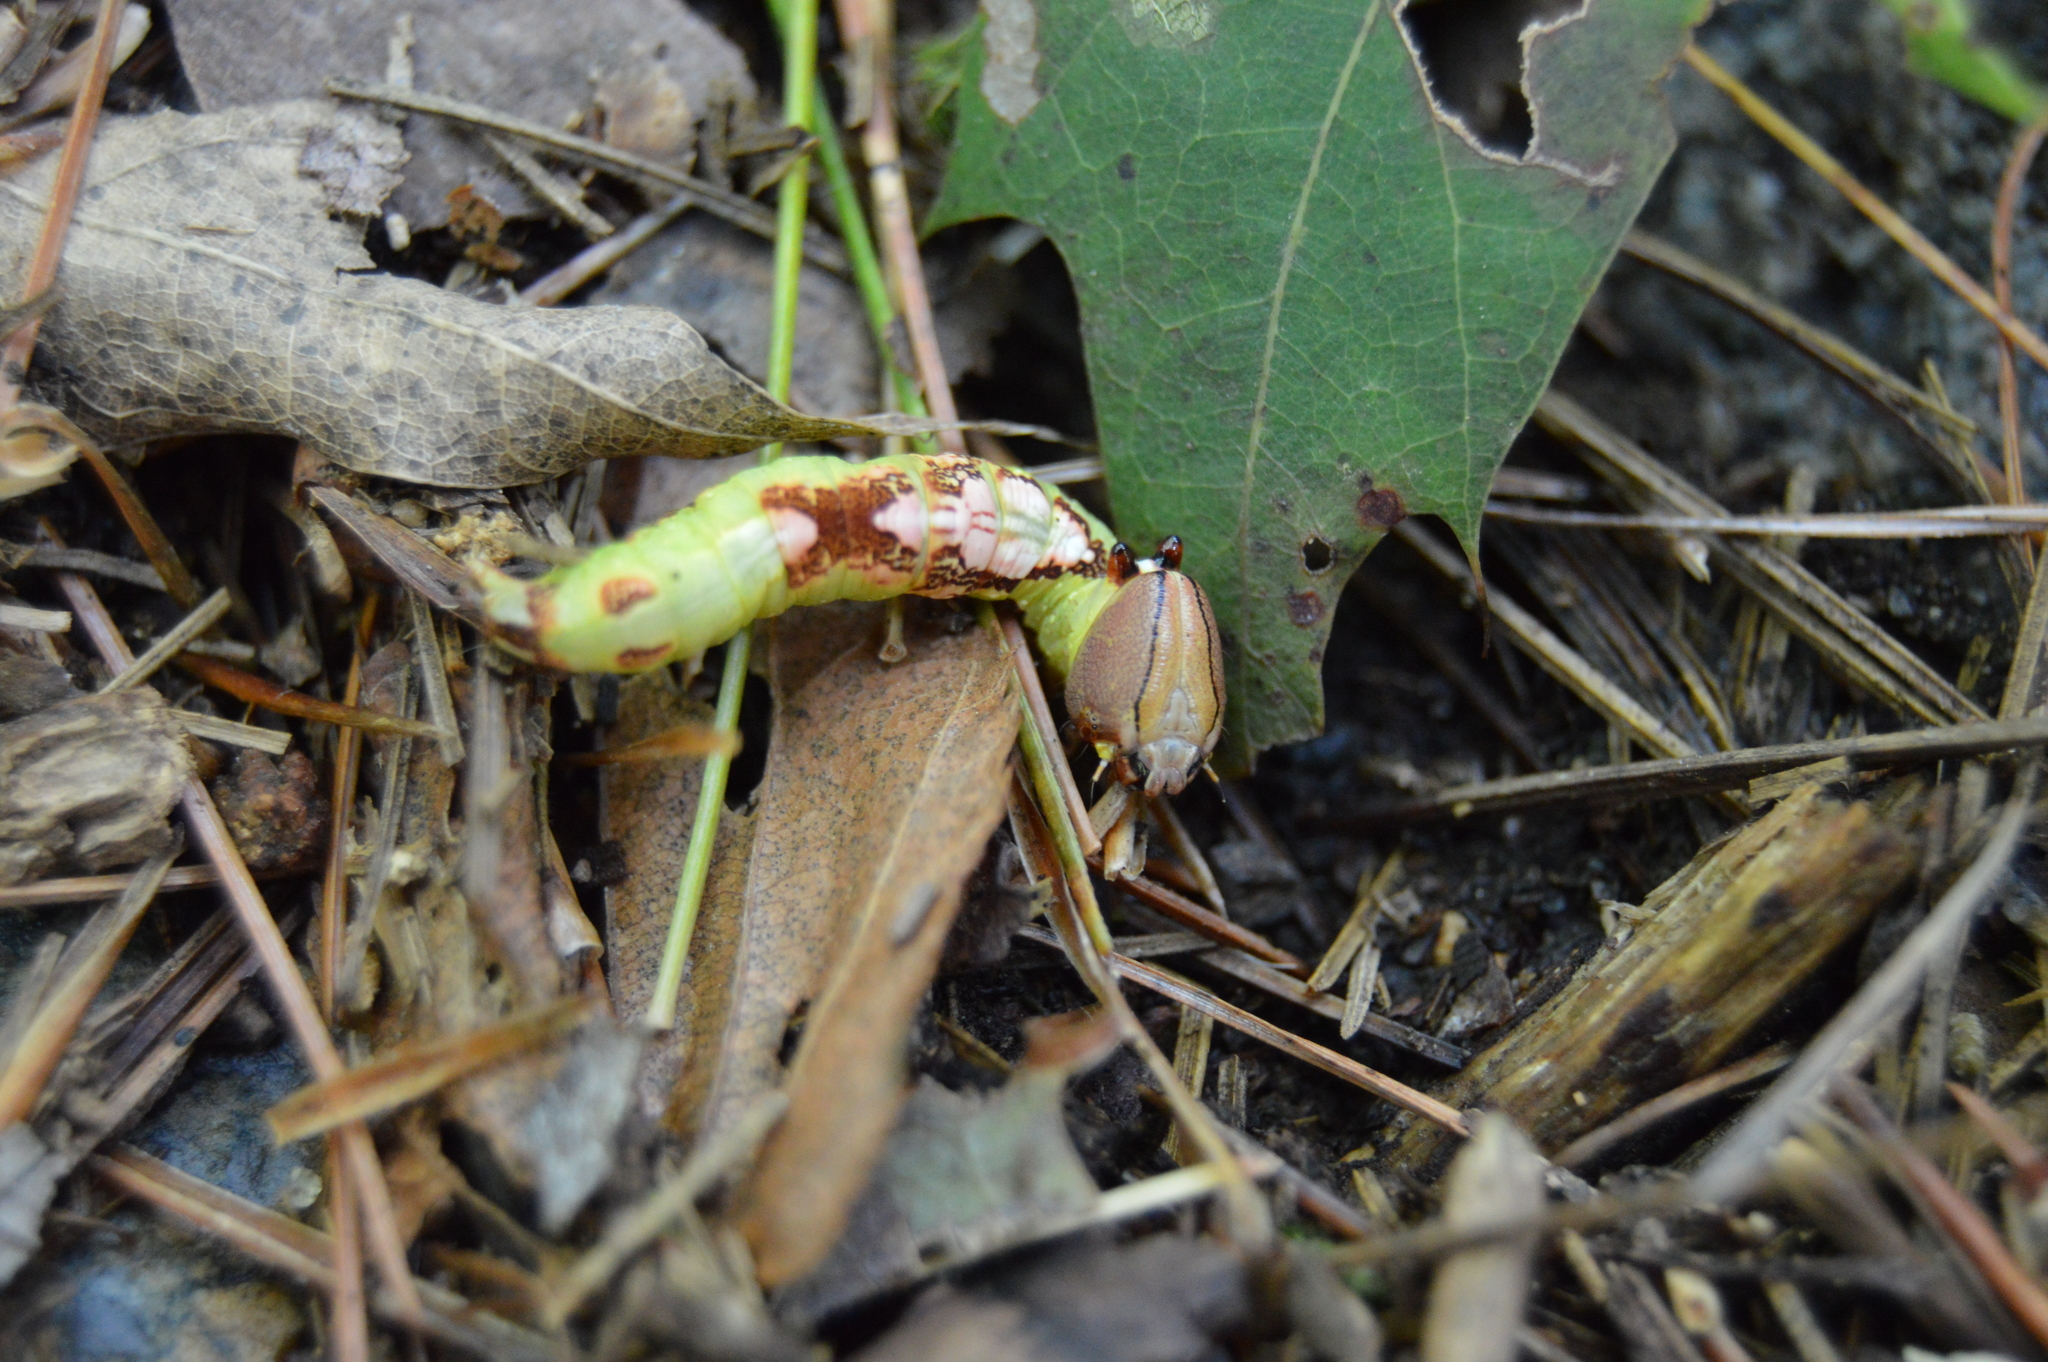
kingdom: Animalia
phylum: Arthropoda
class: Insecta
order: Lepidoptera
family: Notodontidae
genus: Heterocampa
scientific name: Heterocampa
